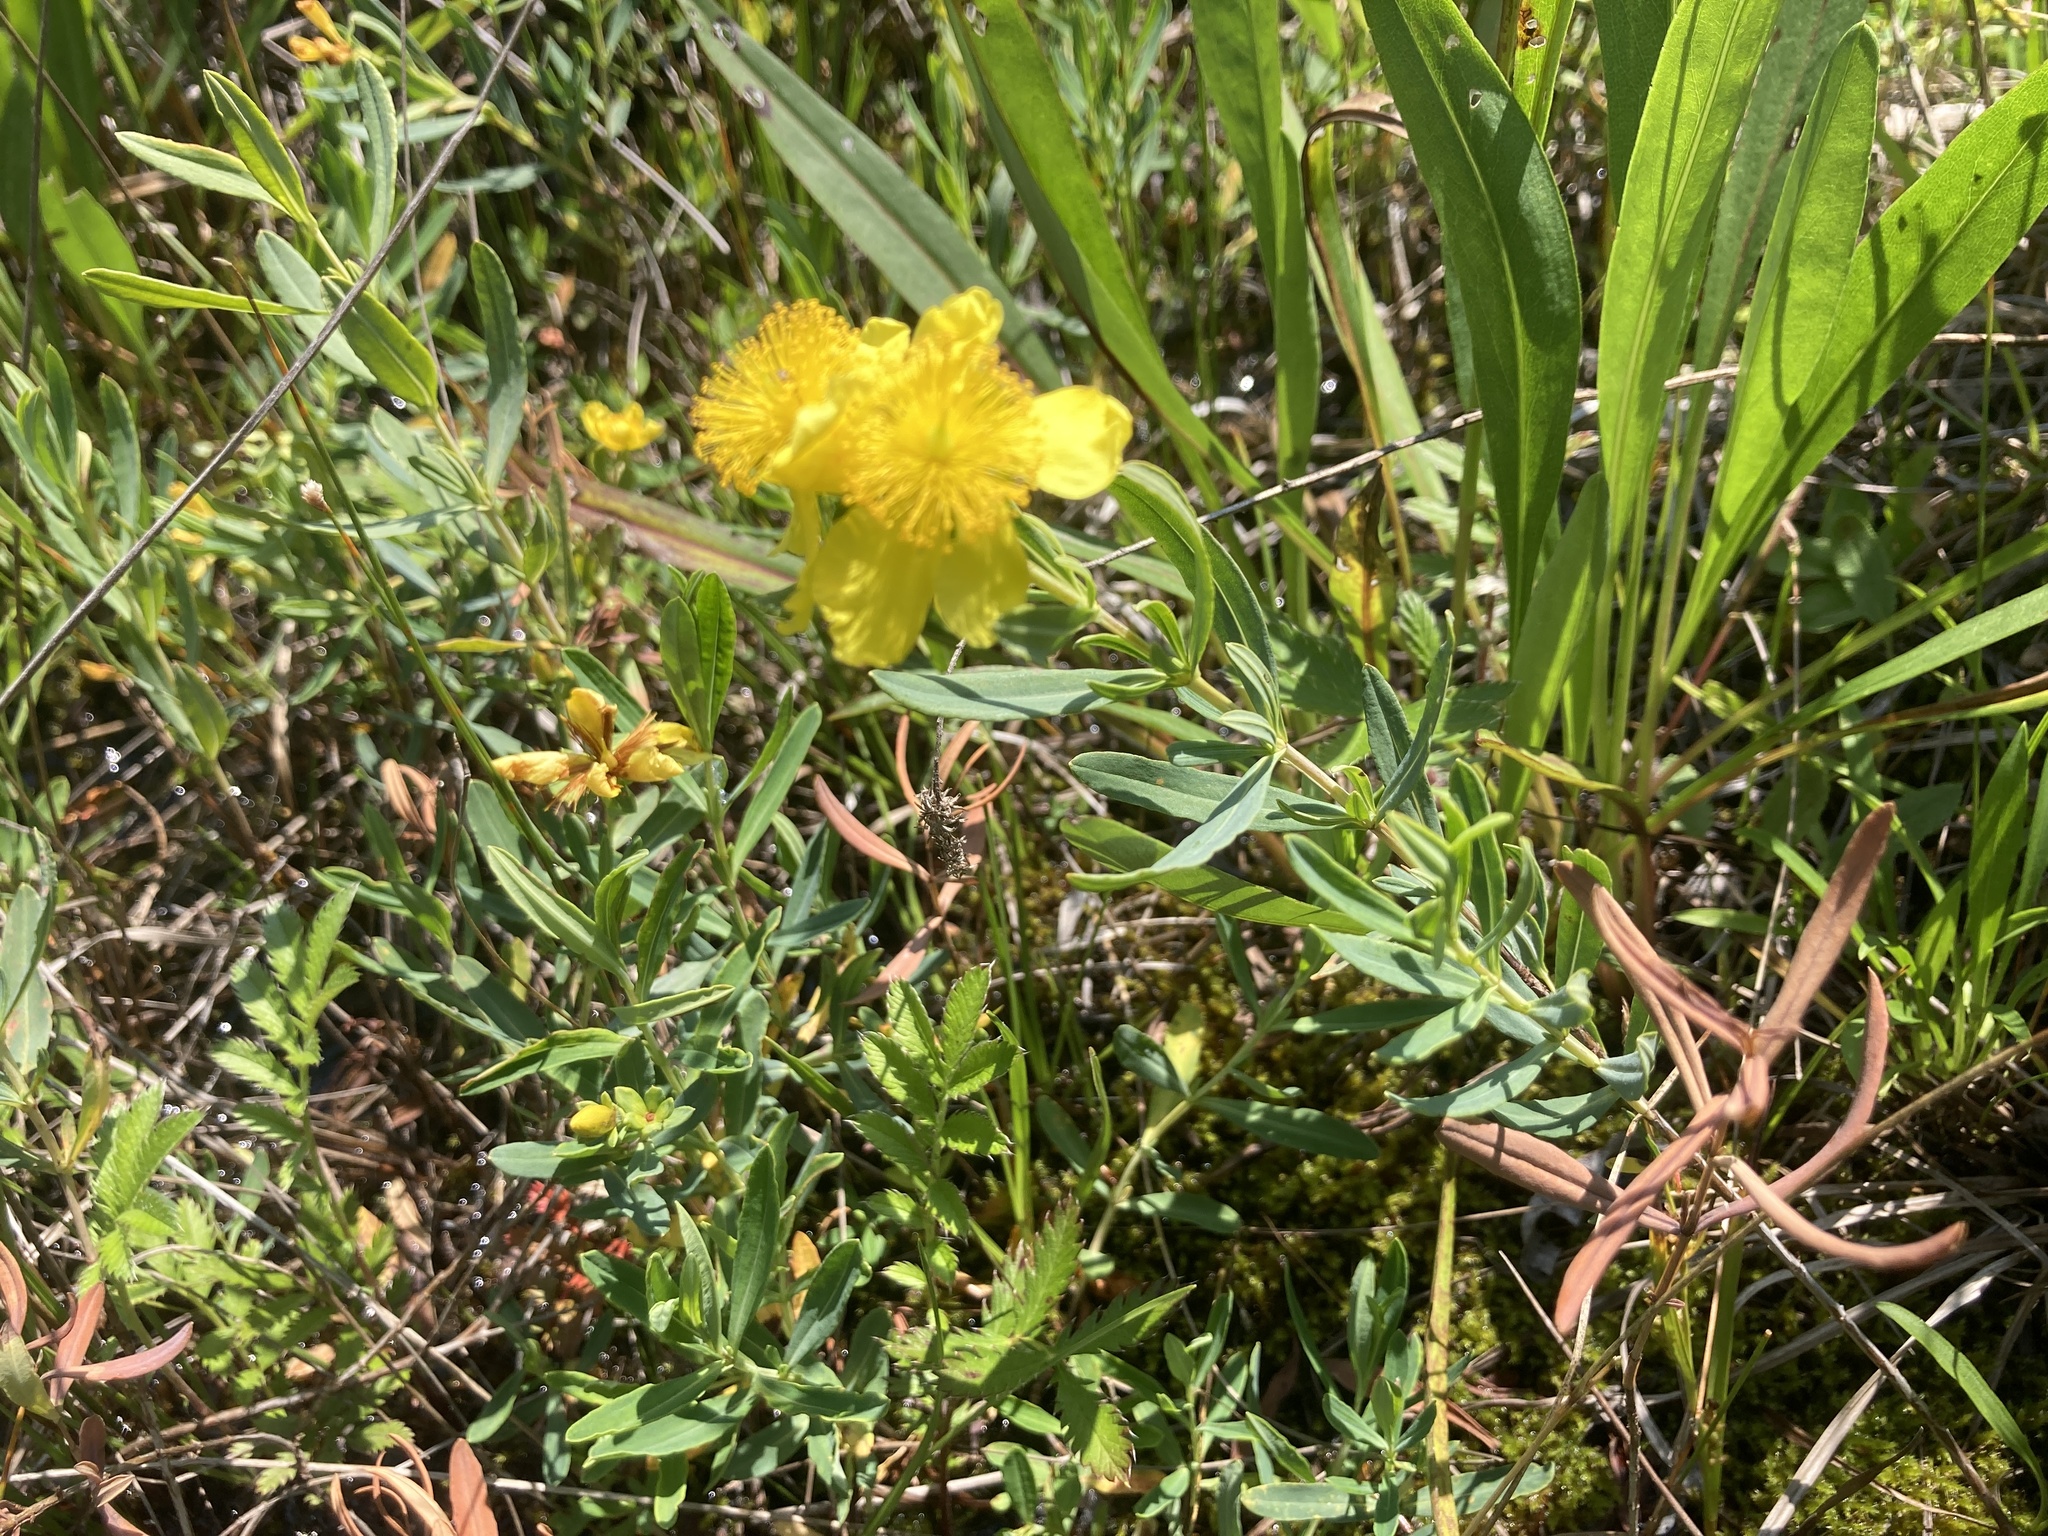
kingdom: Plantae
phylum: Tracheophyta
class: Magnoliopsida
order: Malpighiales
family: Hypericaceae
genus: Hypericum
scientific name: Hypericum kalmianum
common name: Kalm's st. john's-wort
